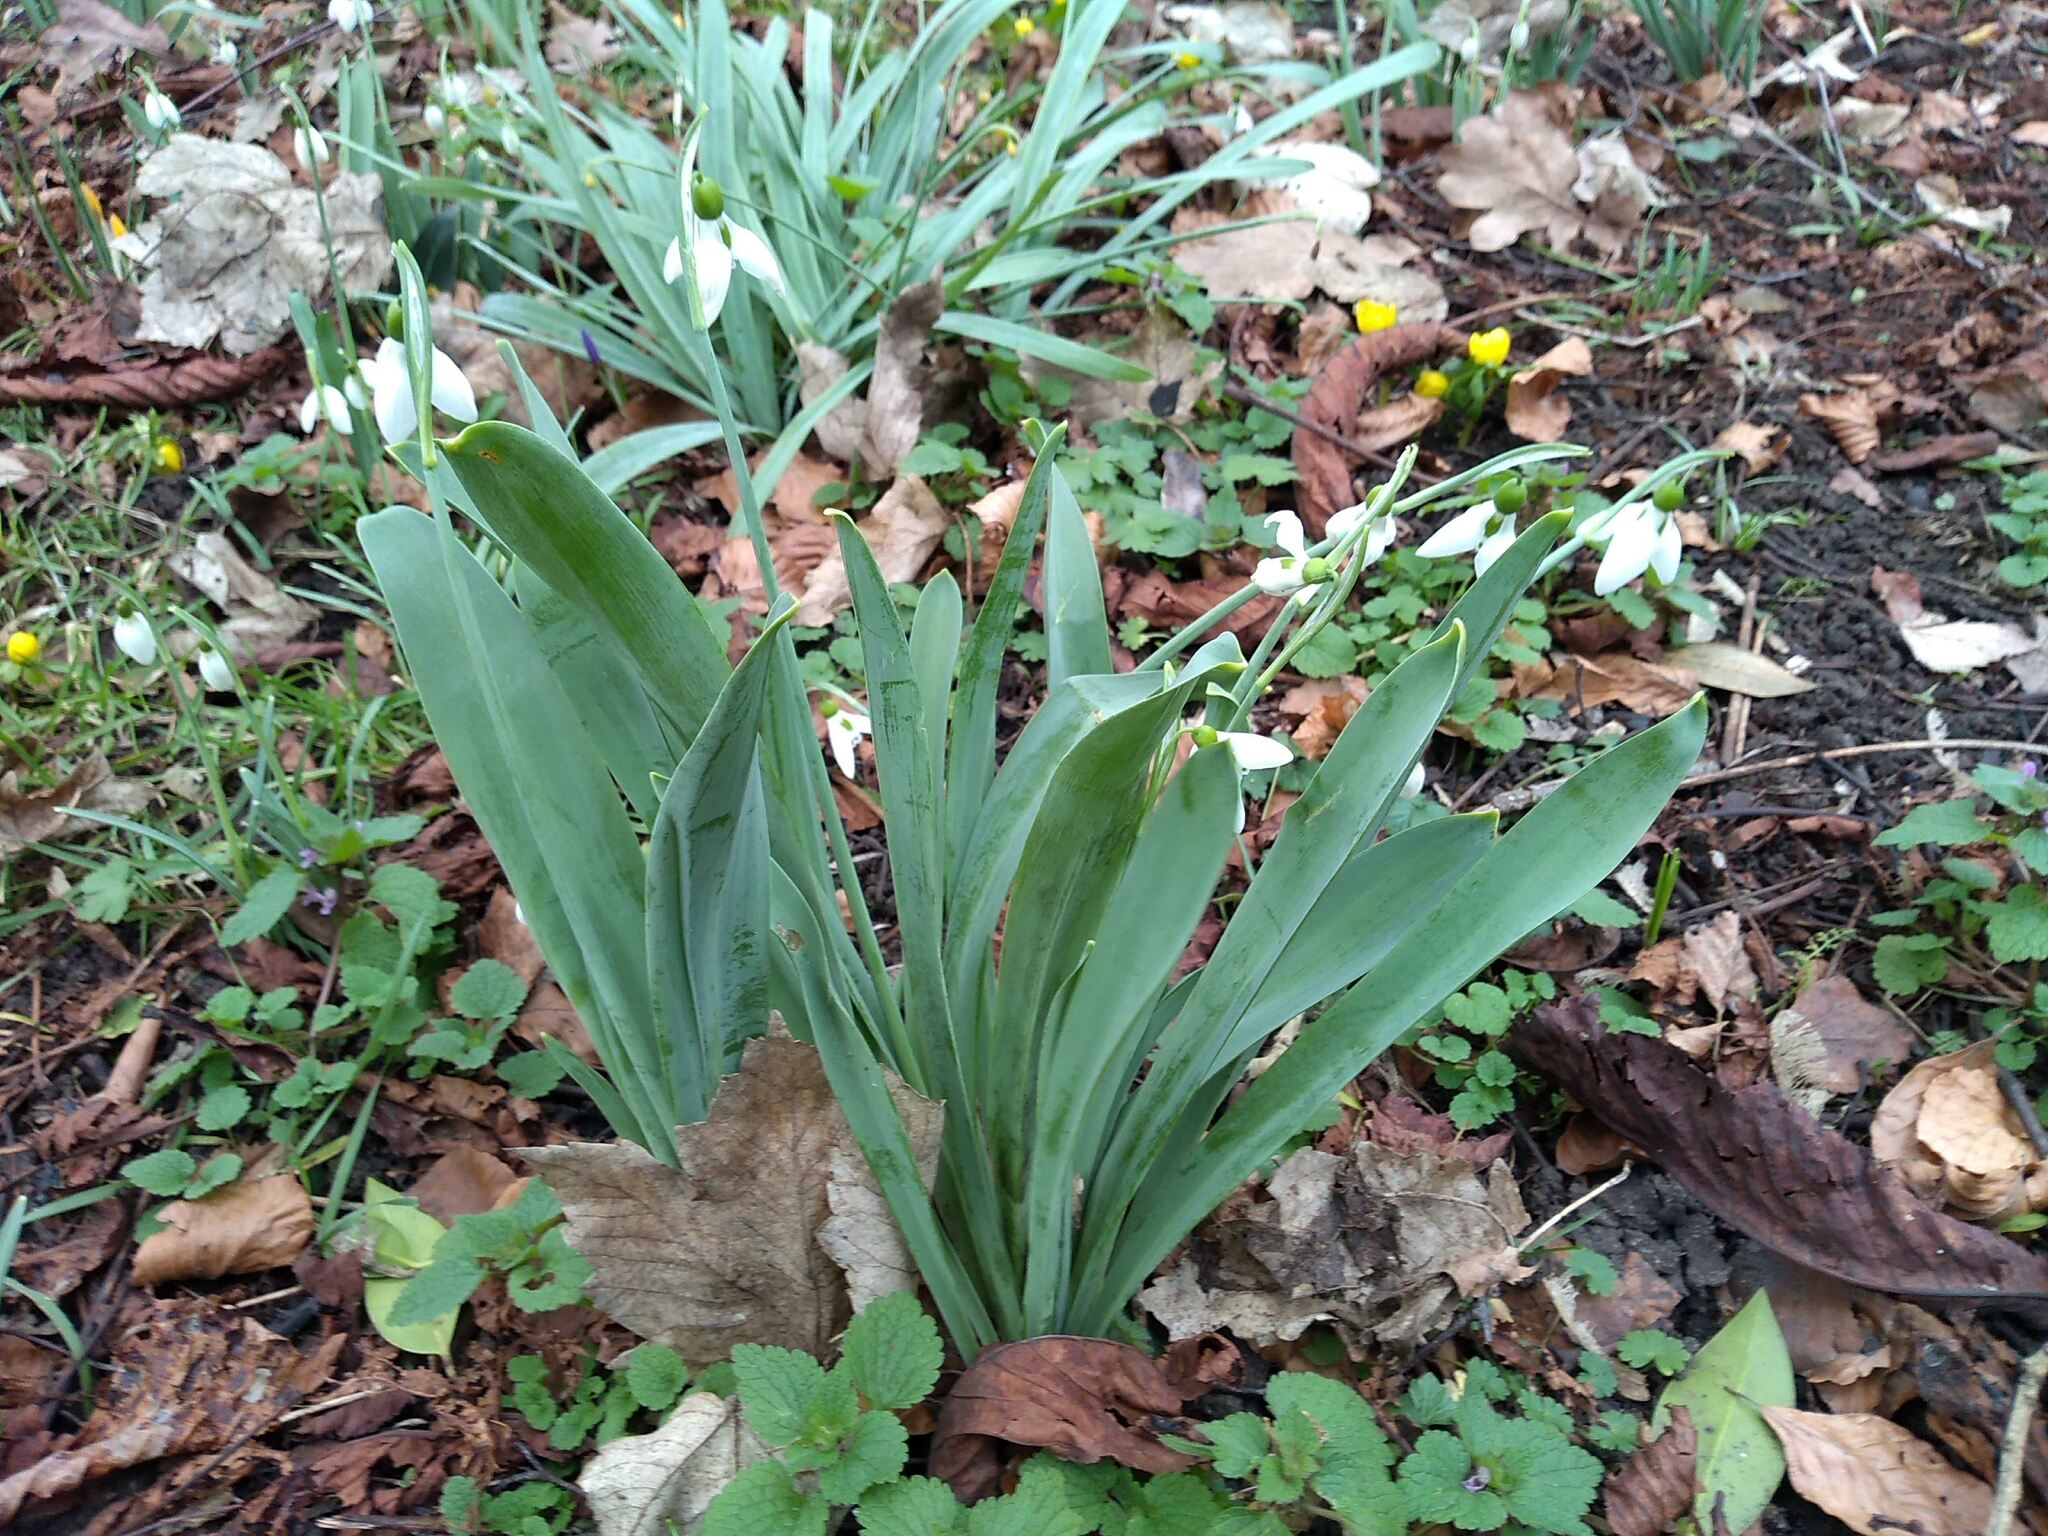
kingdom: Plantae
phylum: Tracheophyta
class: Liliopsida
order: Asparagales
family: Amaryllidaceae
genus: Galanthus
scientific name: Galanthus elwesii
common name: Greater snowdrop
